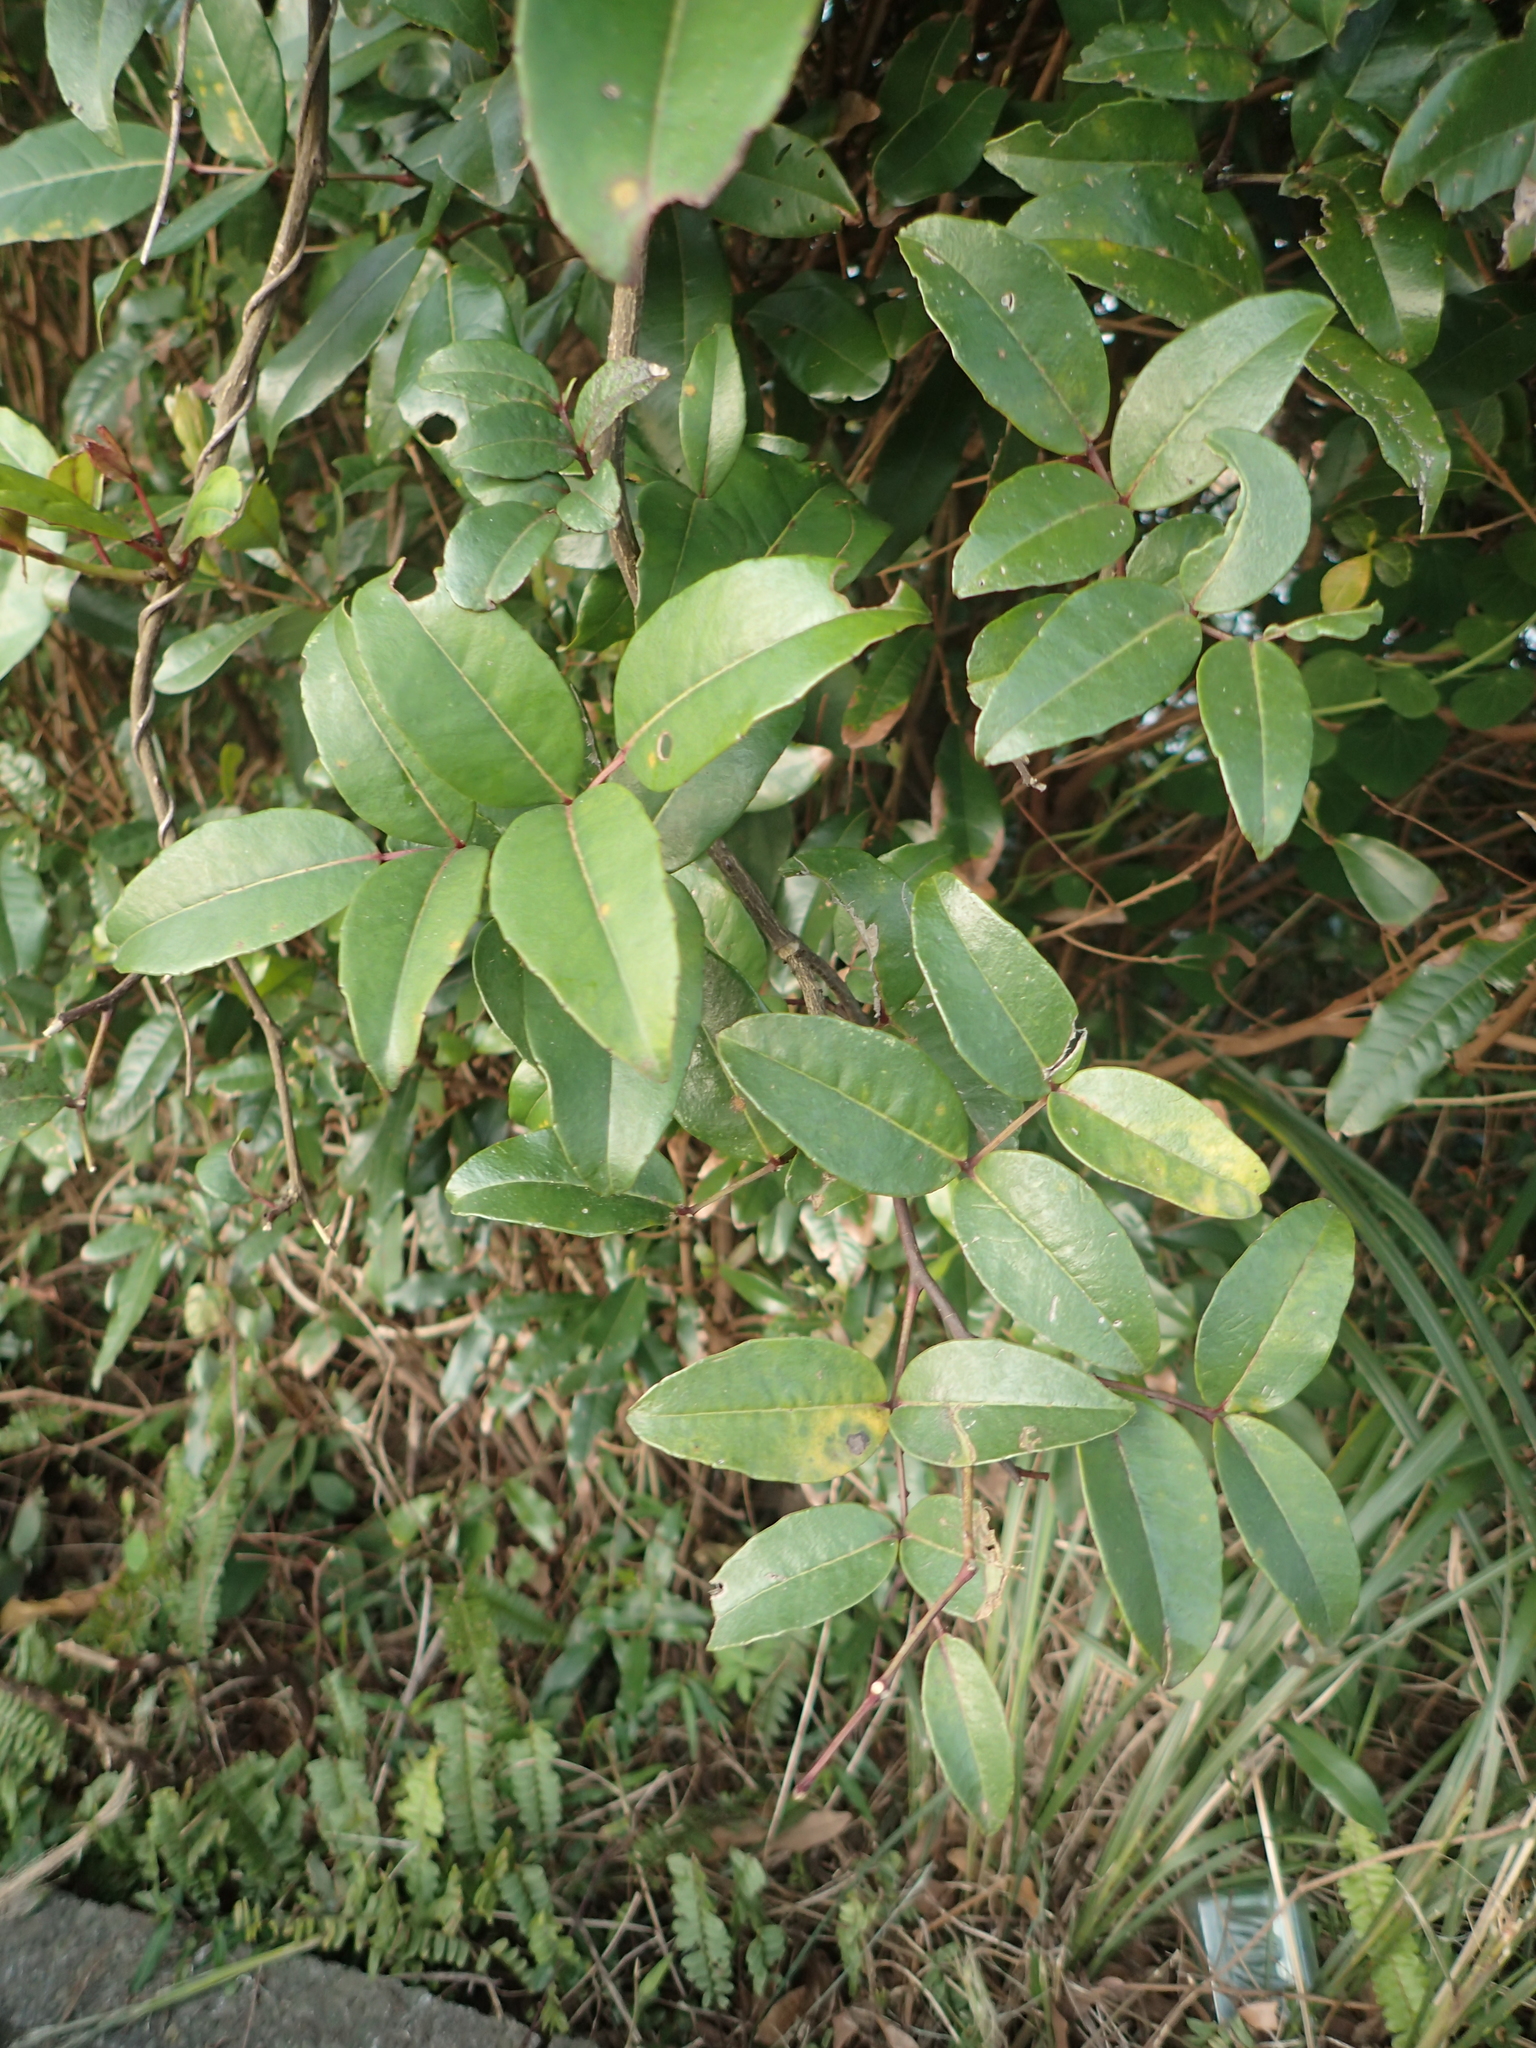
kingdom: Plantae
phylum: Tracheophyta
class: Magnoliopsida
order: Sapindales
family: Rutaceae
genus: Zanthoxylum
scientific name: Zanthoxylum nitidum
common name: Shiny-leaf prickly-ash
